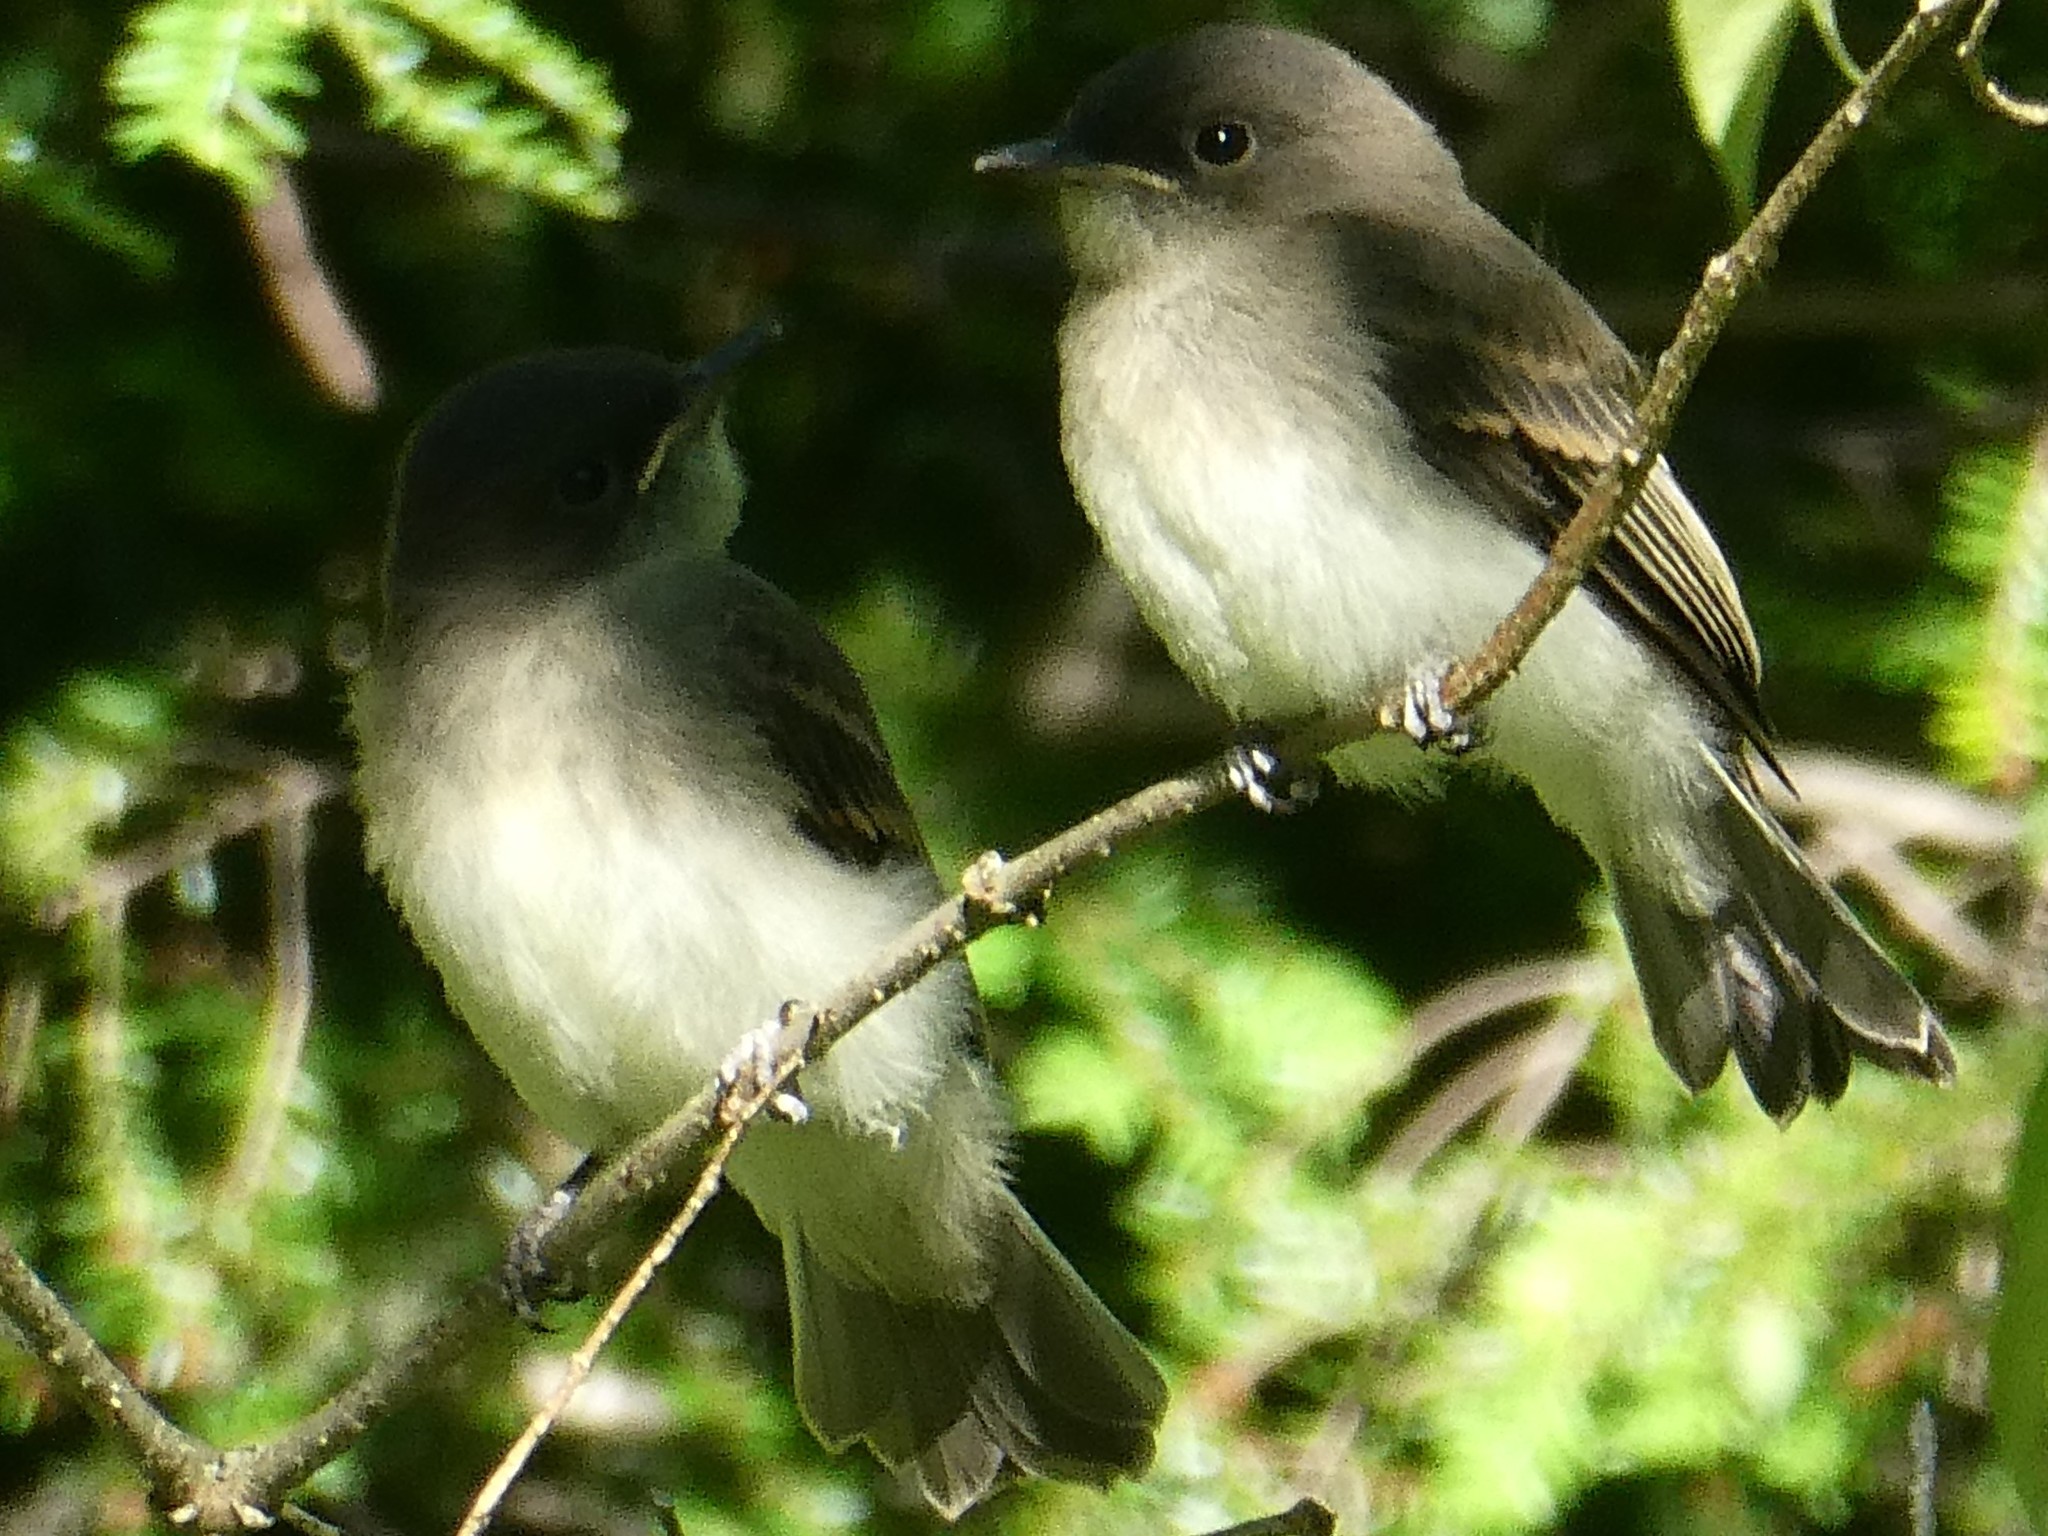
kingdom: Animalia
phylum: Chordata
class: Aves
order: Passeriformes
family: Tyrannidae
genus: Sayornis
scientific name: Sayornis phoebe
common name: Eastern phoebe
